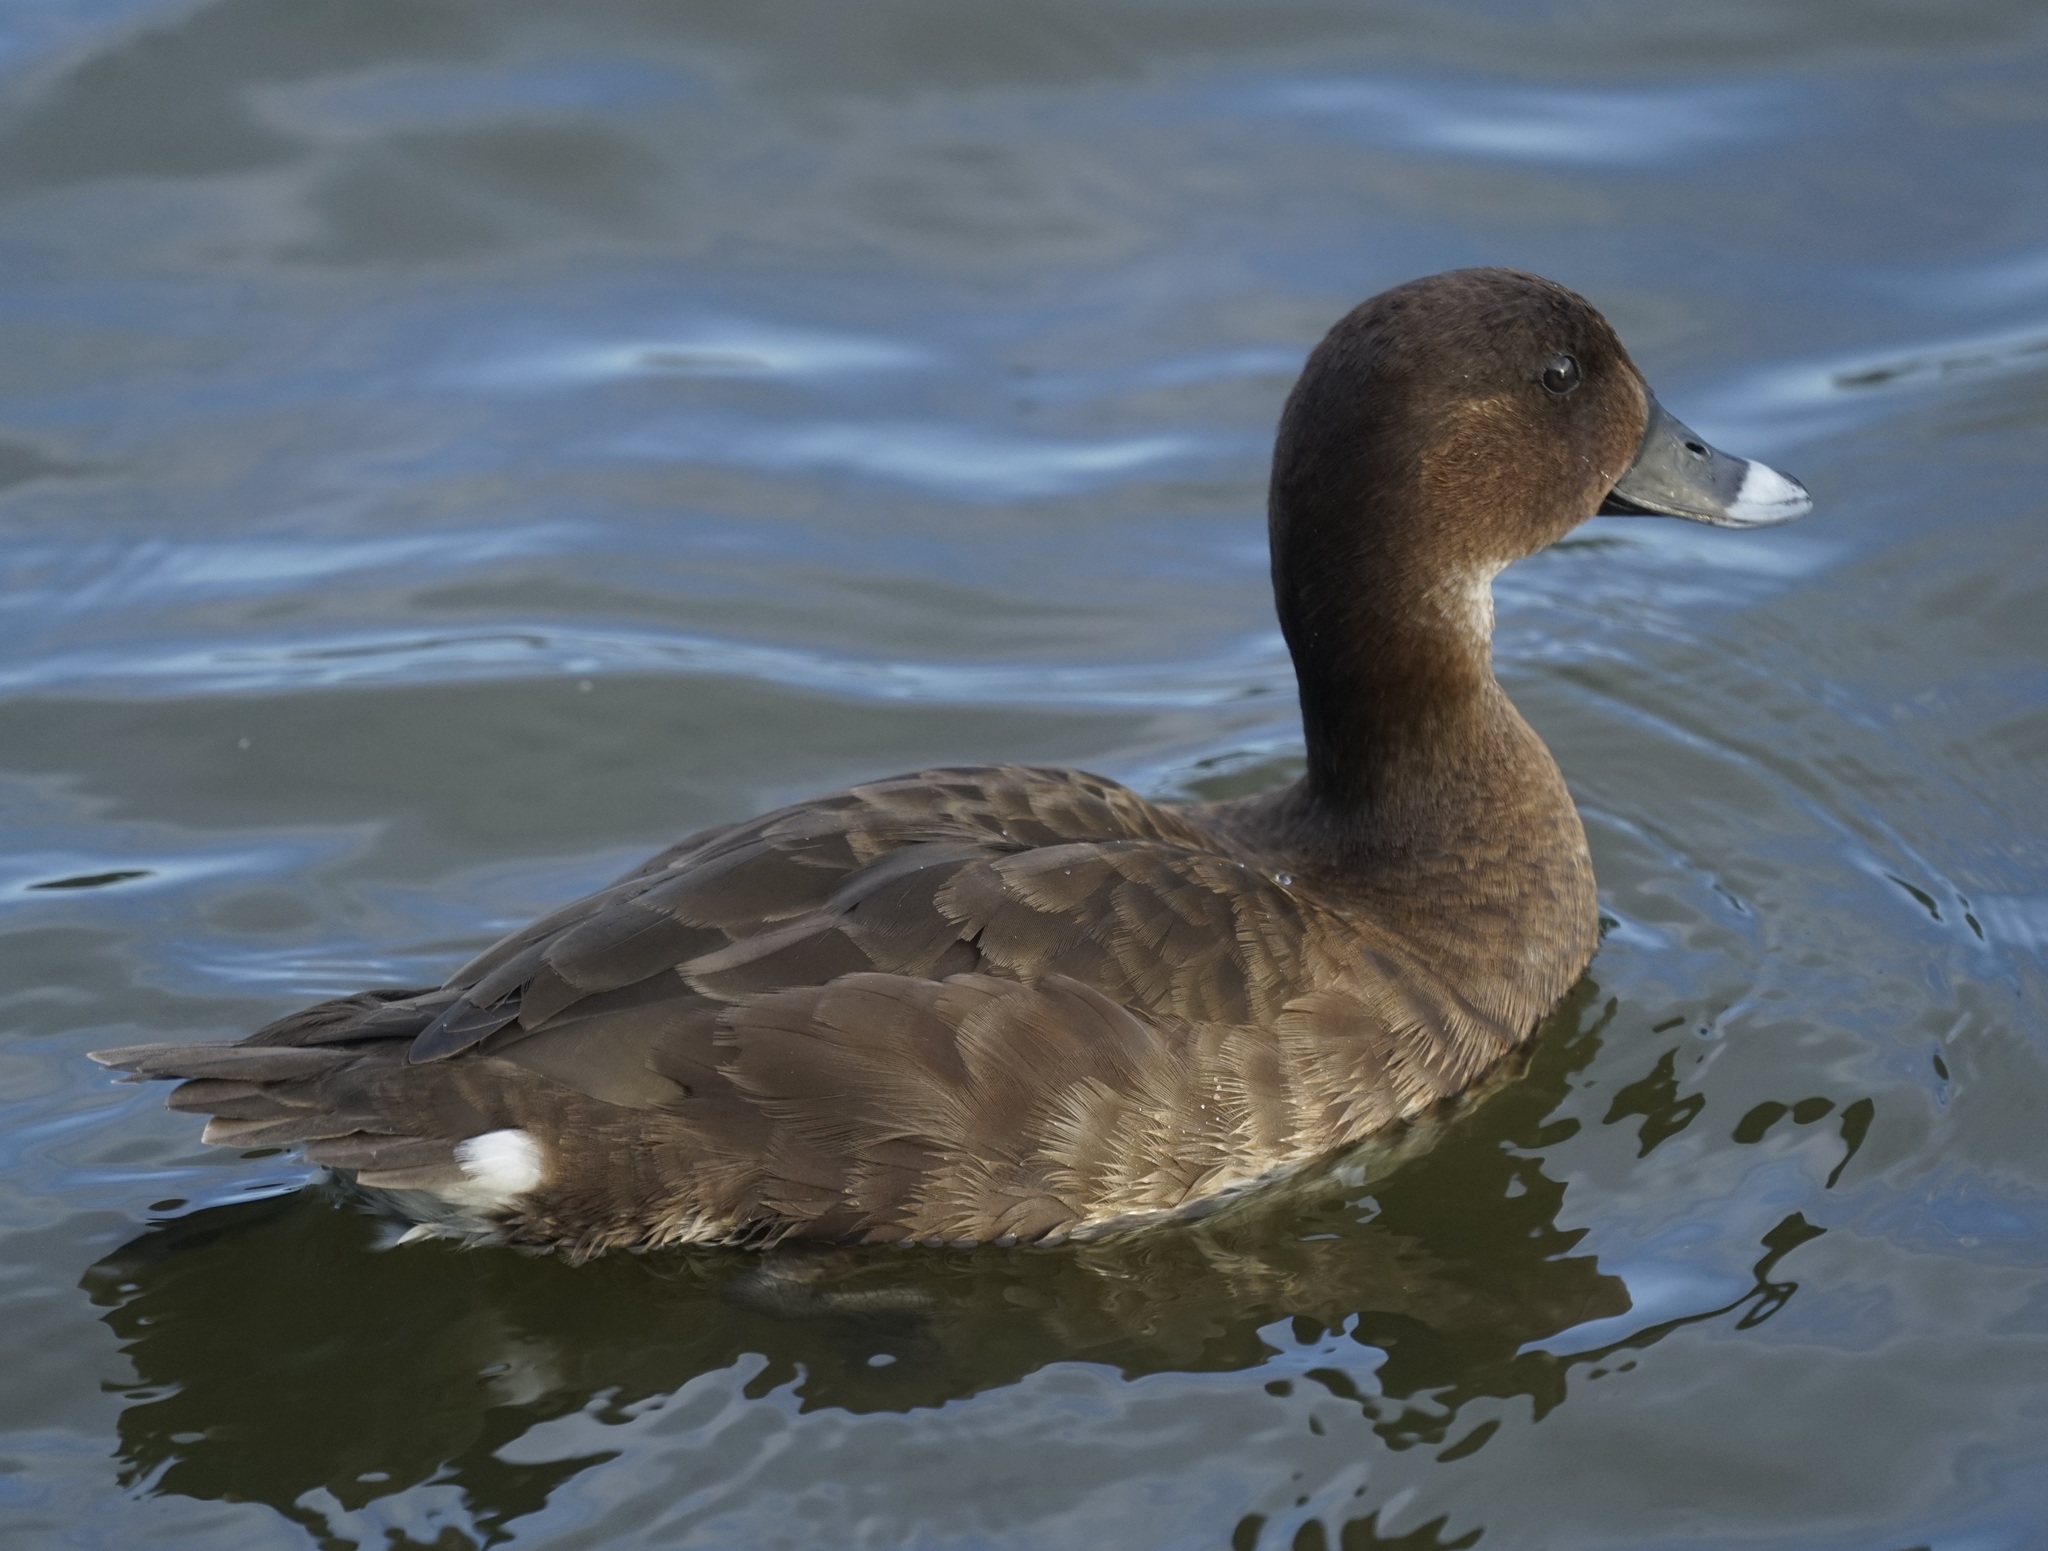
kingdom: Animalia
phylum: Chordata
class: Aves
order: Anseriformes
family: Anatidae
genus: Aythya
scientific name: Aythya australis
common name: Hardhead
